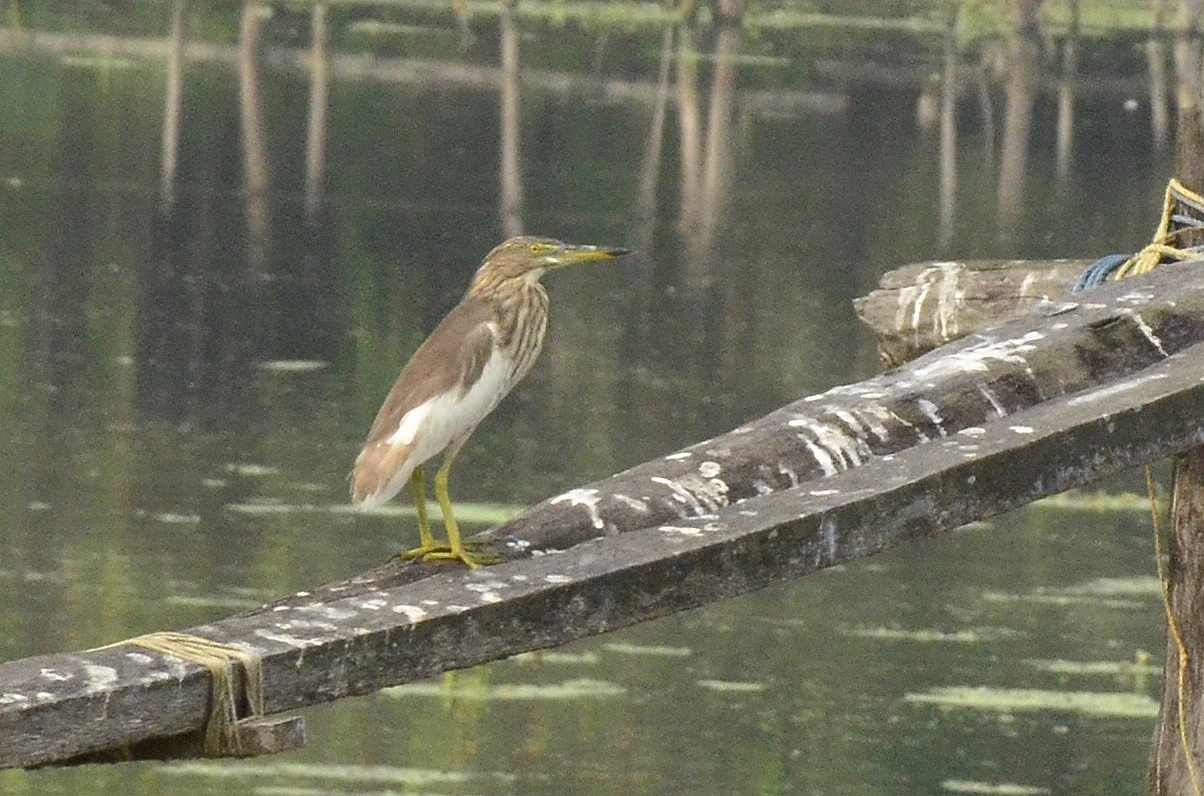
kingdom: Animalia
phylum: Chordata
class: Aves
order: Pelecaniformes
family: Ardeidae
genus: Ardeola
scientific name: Ardeola grayii
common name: Indian pond heron
